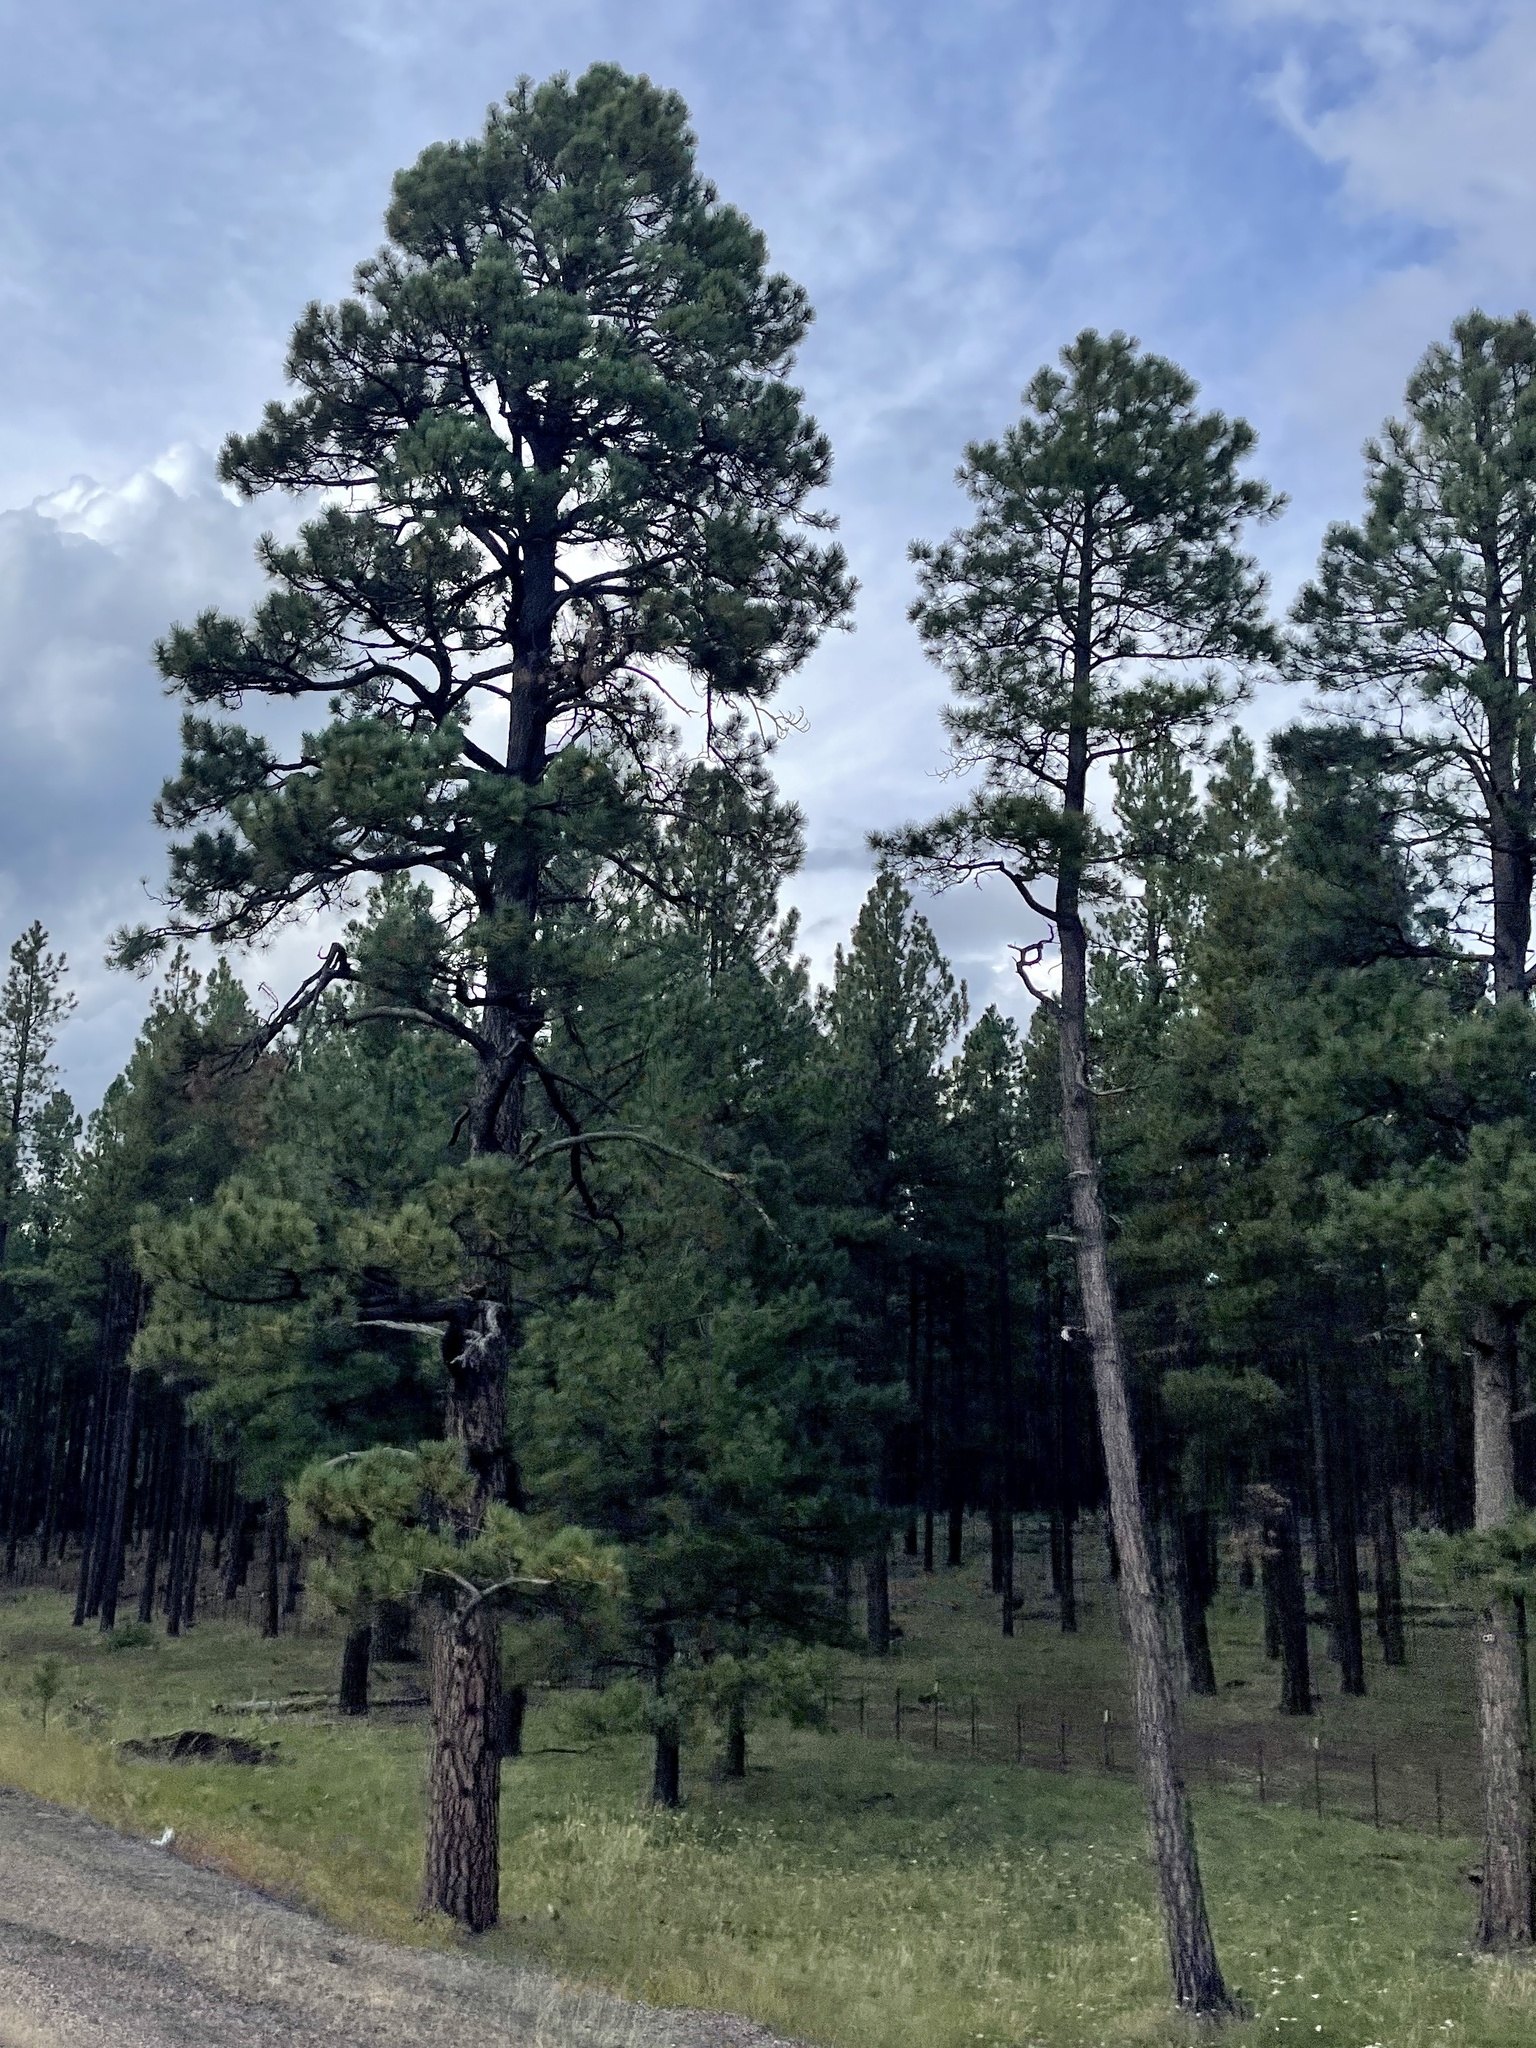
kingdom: Plantae
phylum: Tracheophyta
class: Pinopsida
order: Pinales
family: Pinaceae
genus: Pinus
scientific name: Pinus ponderosa
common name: Western yellow-pine
